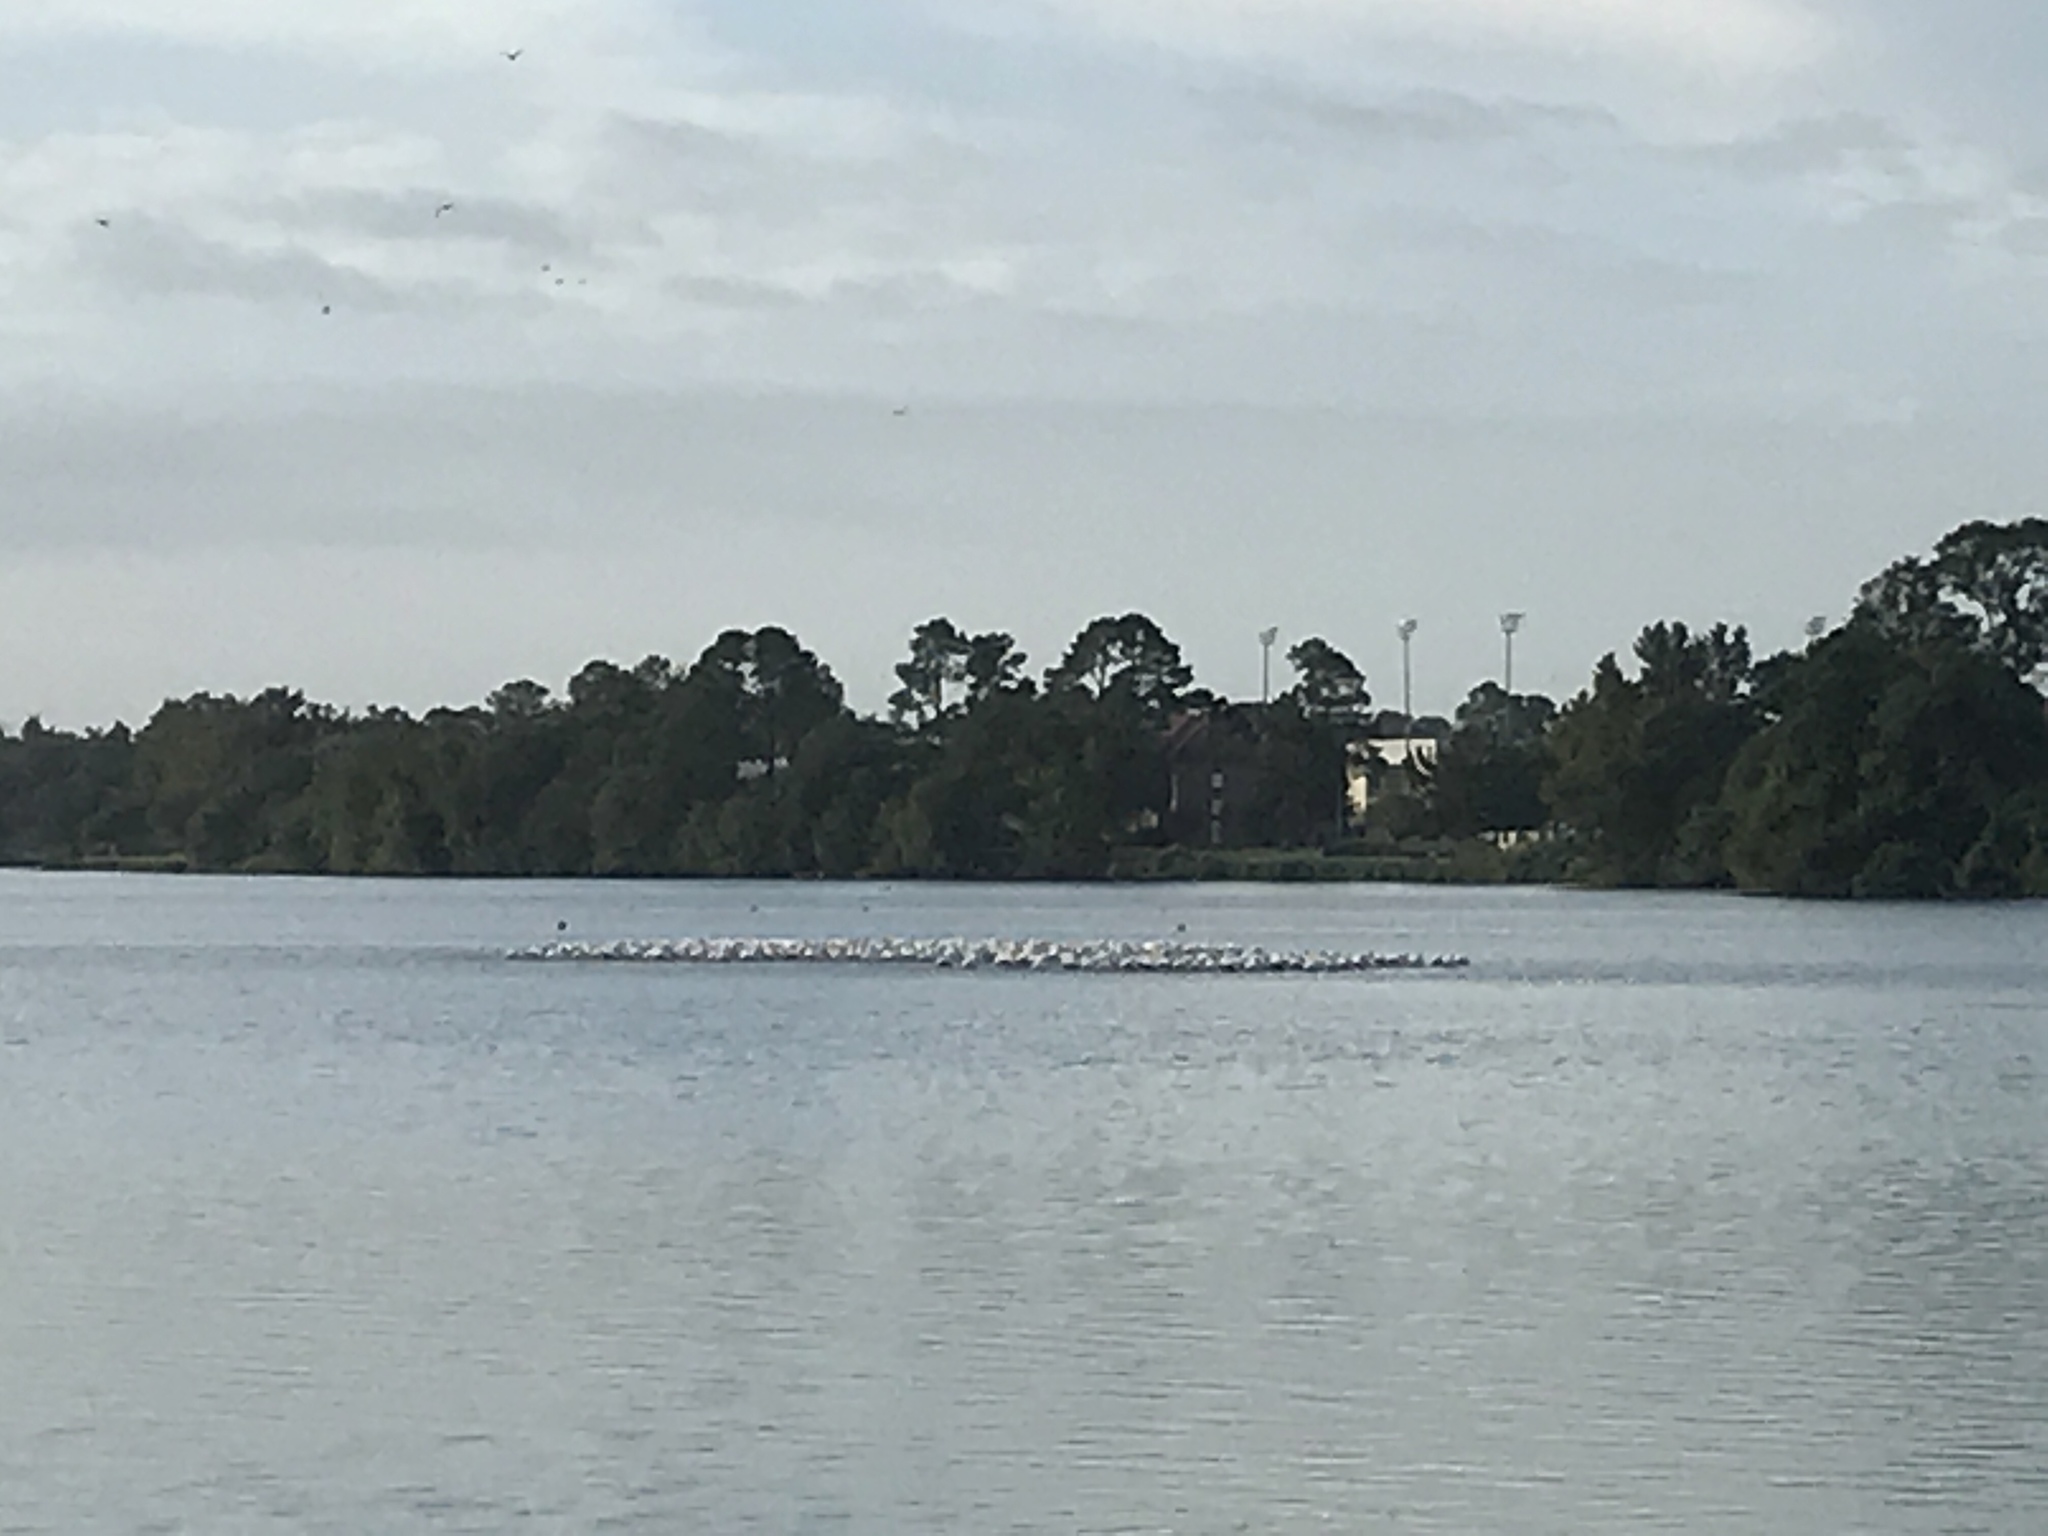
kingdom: Animalia
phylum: Chordata
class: Aves
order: Pelecaniformes
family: Pelecanidae
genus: Pelecanus
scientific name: Pelecanus erythrorhynchos
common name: American white pelican
